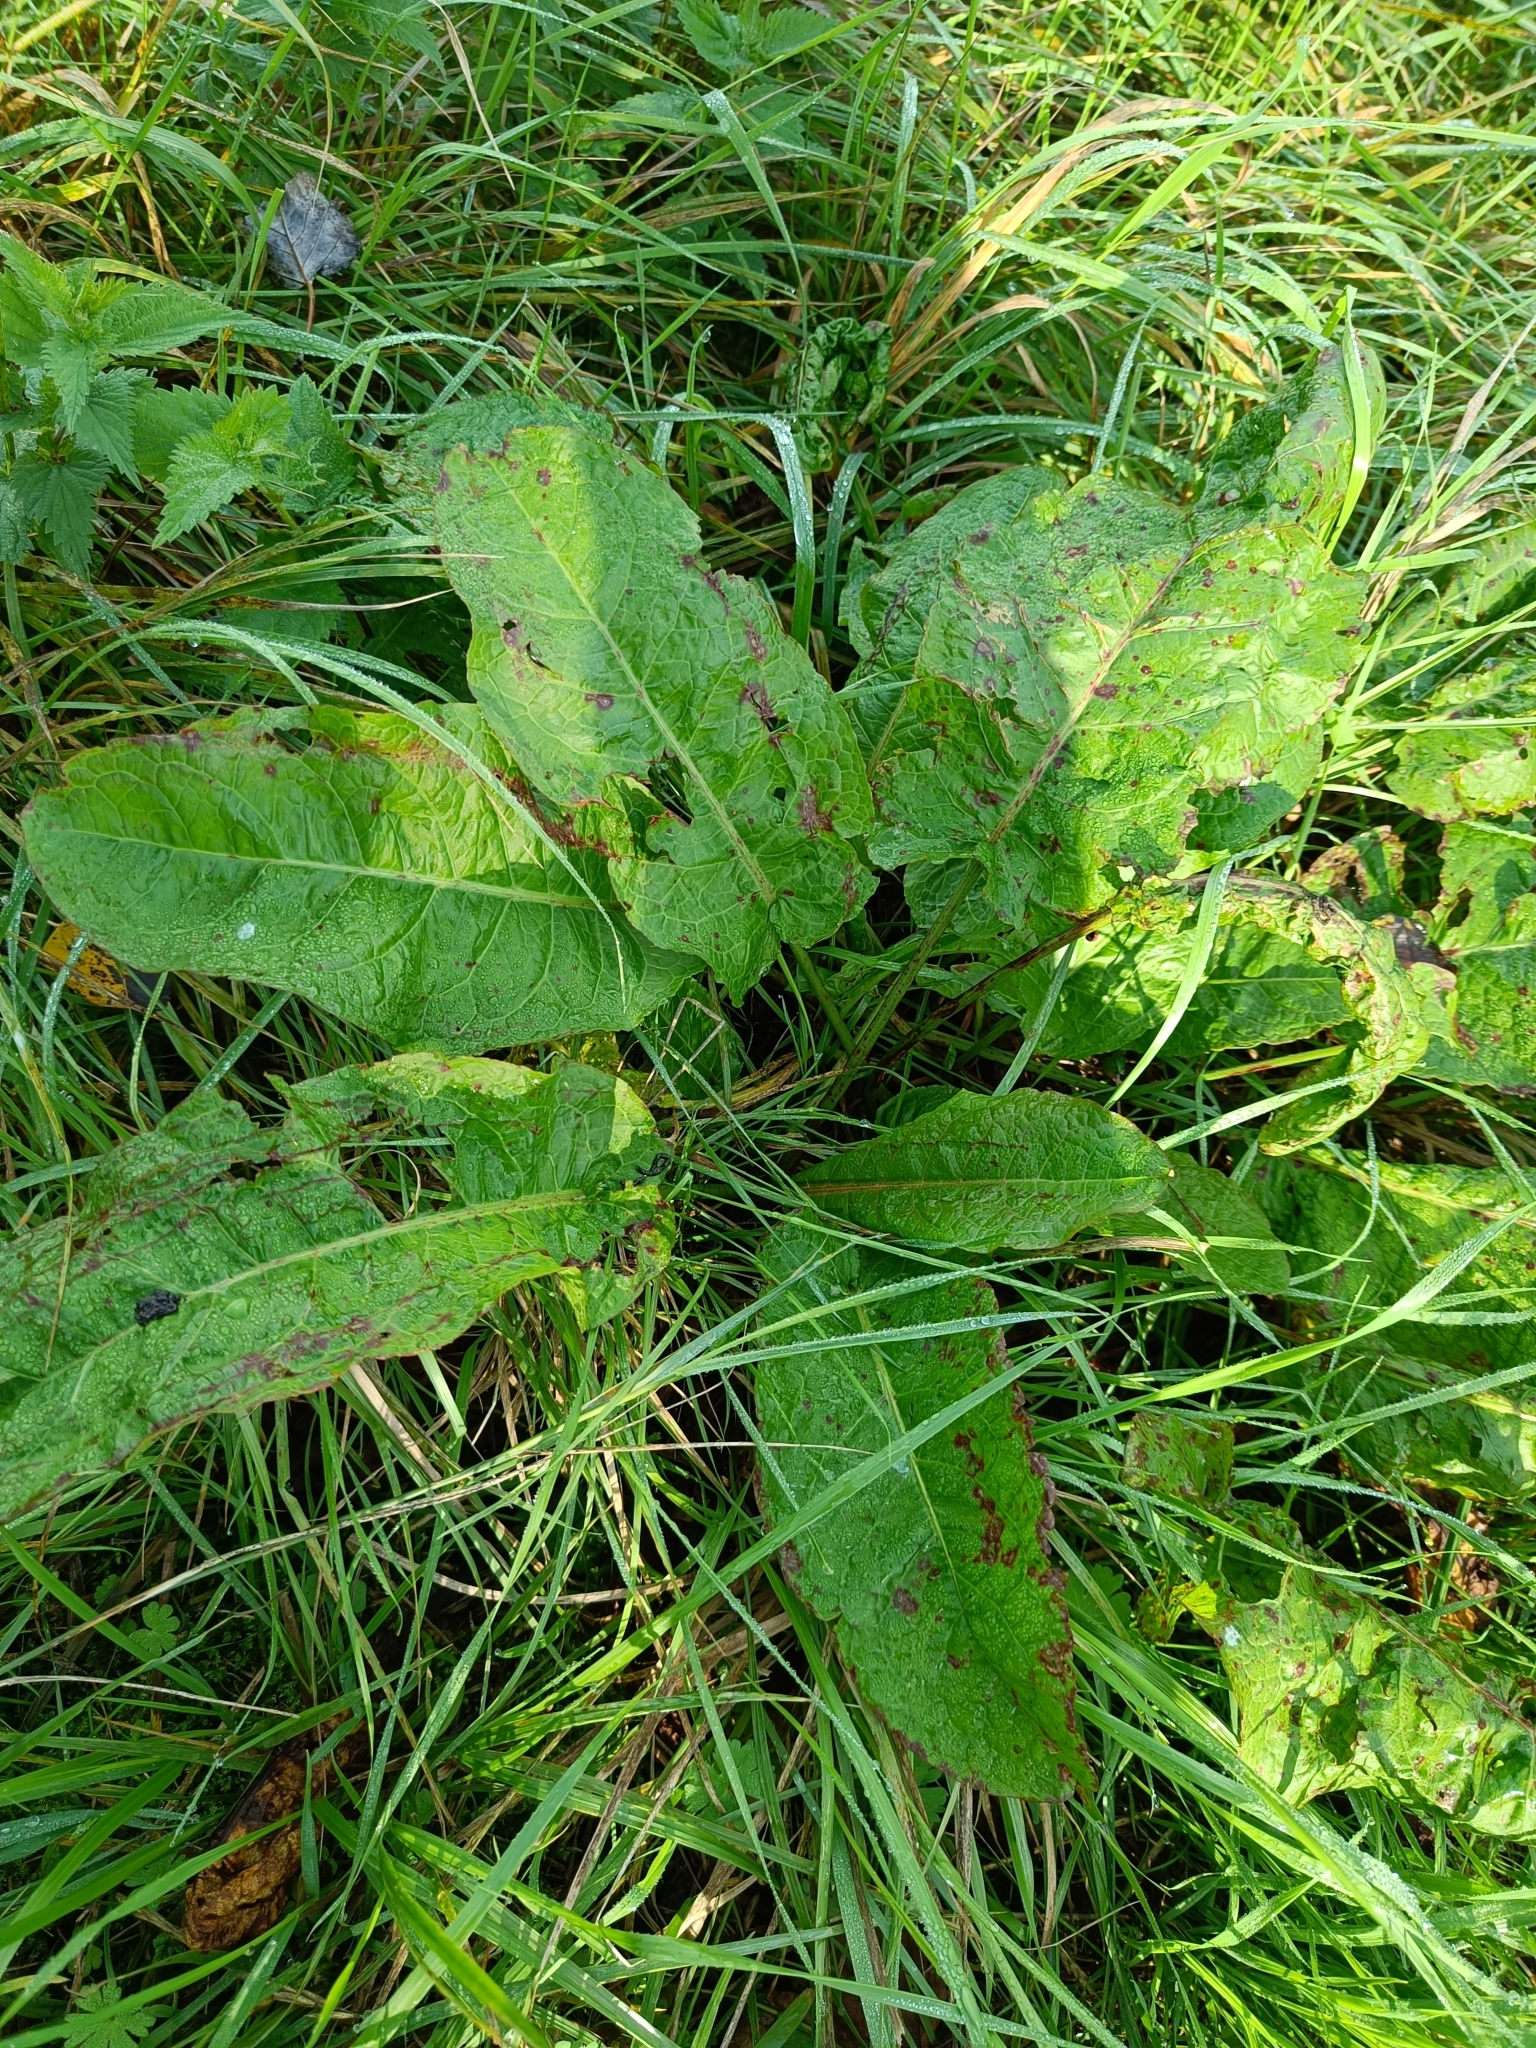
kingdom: Plantae
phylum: Tracheophyta
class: Magnoliopsida
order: Caryophyllales
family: Polygonaceae
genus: Rumex
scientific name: Rumex obtusifolius
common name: Bitter dock
